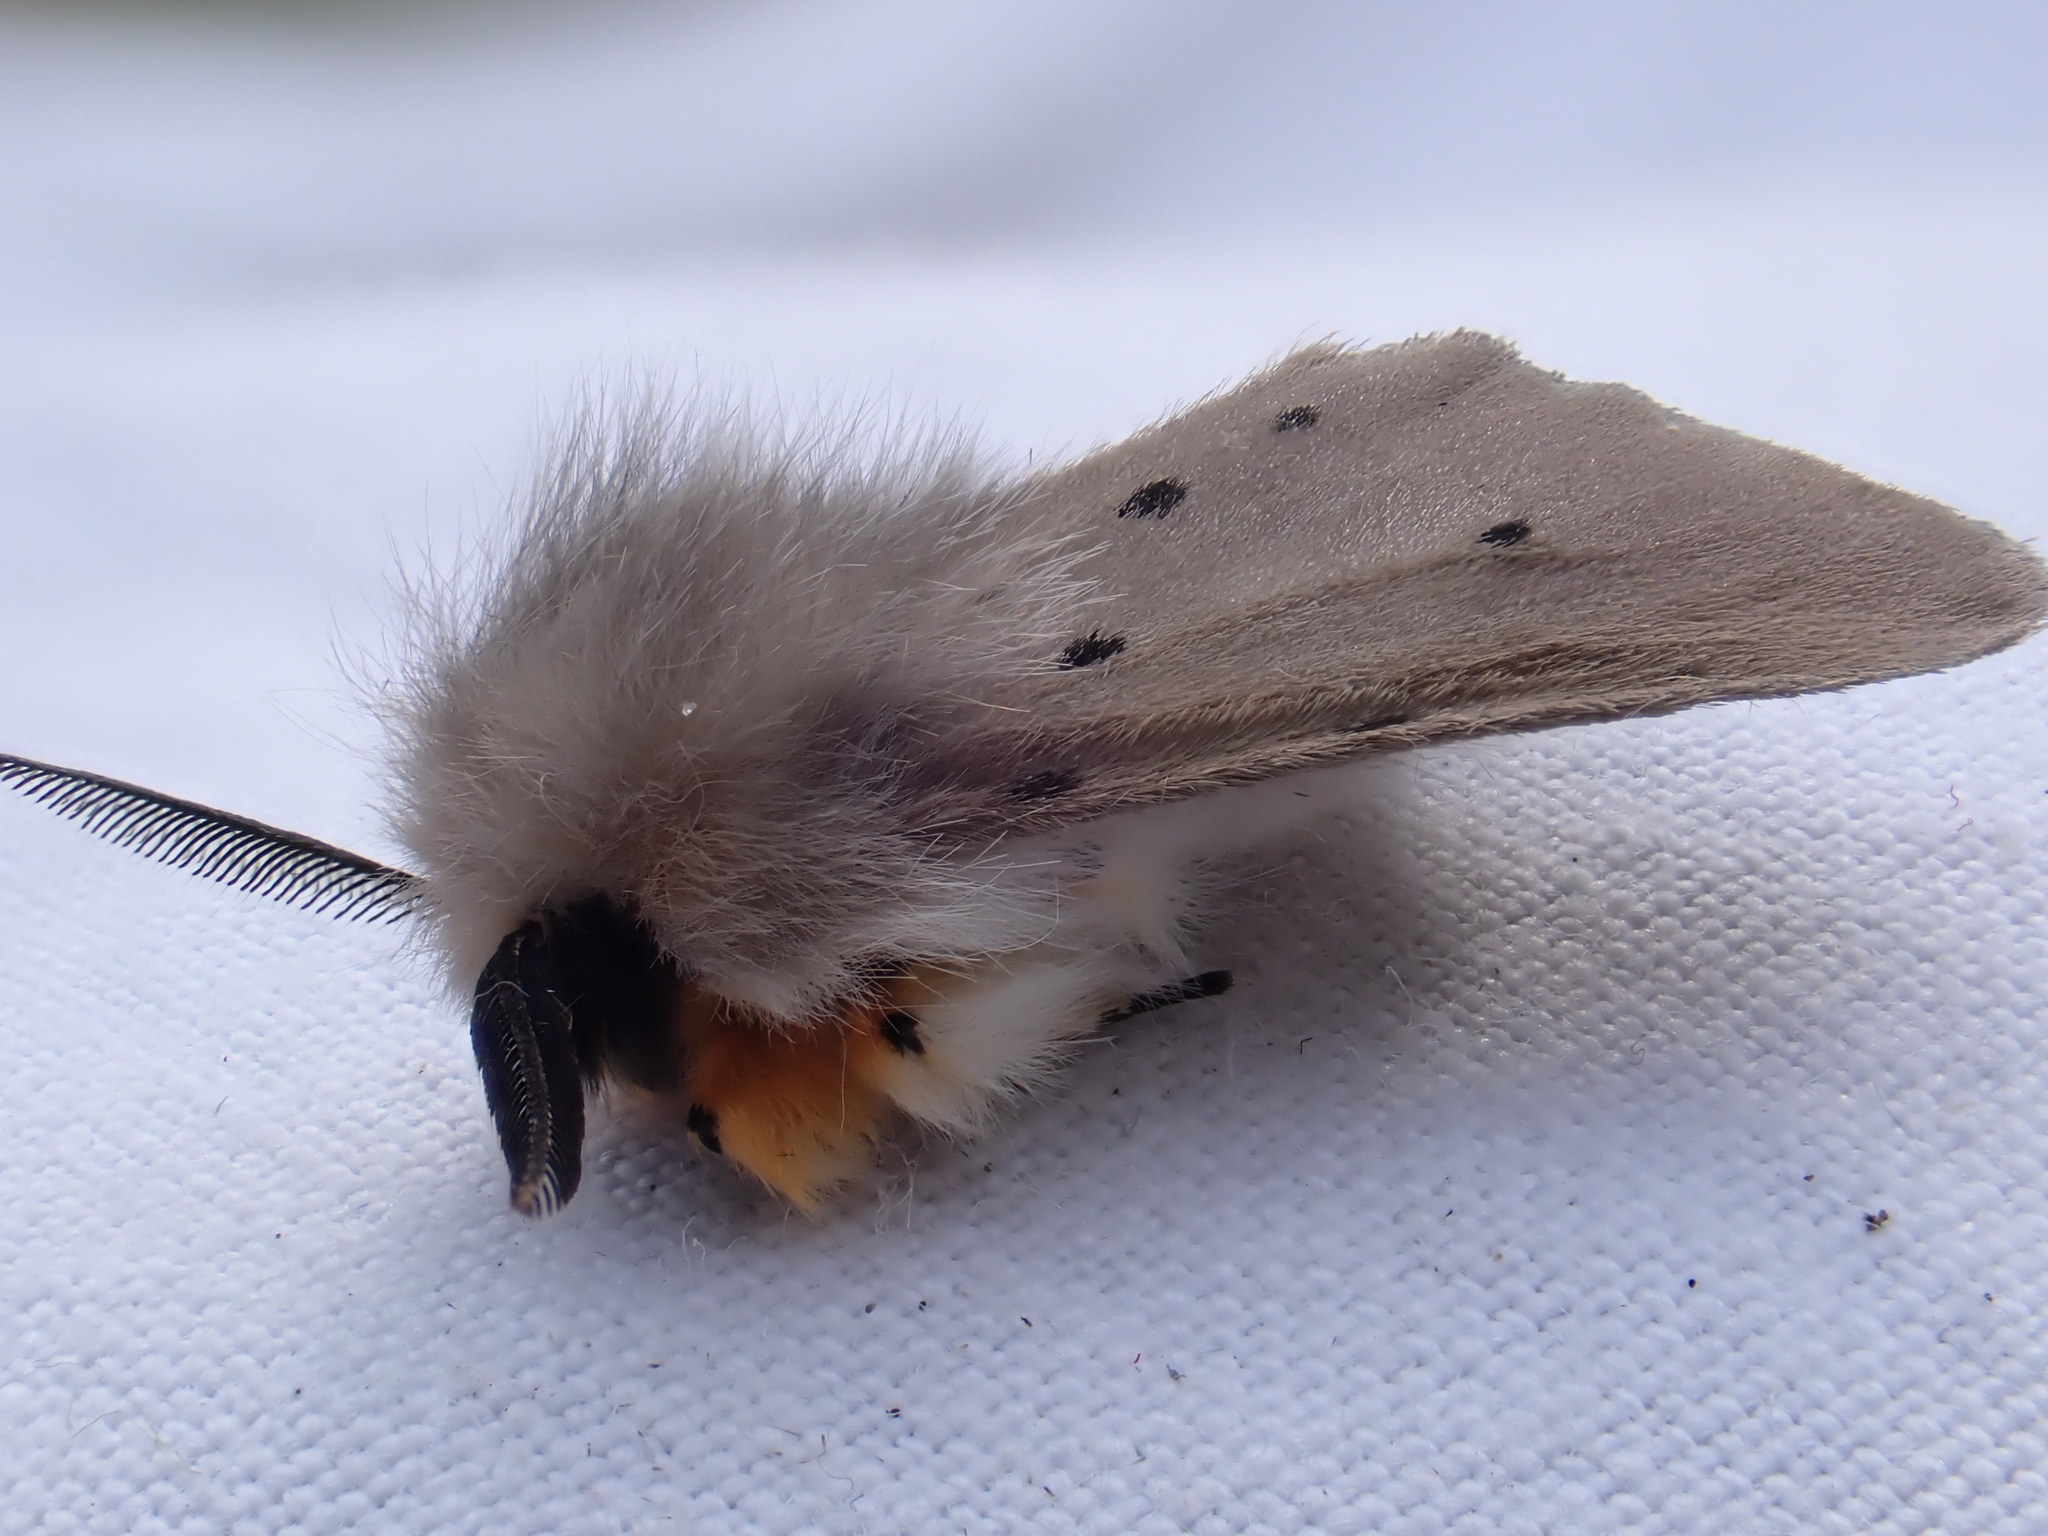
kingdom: Animalia
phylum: Arthropoda
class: Insecta
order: Lepidoptera
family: Erebidae
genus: Diaphora
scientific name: Diaphora mendica
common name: Muslin moth
